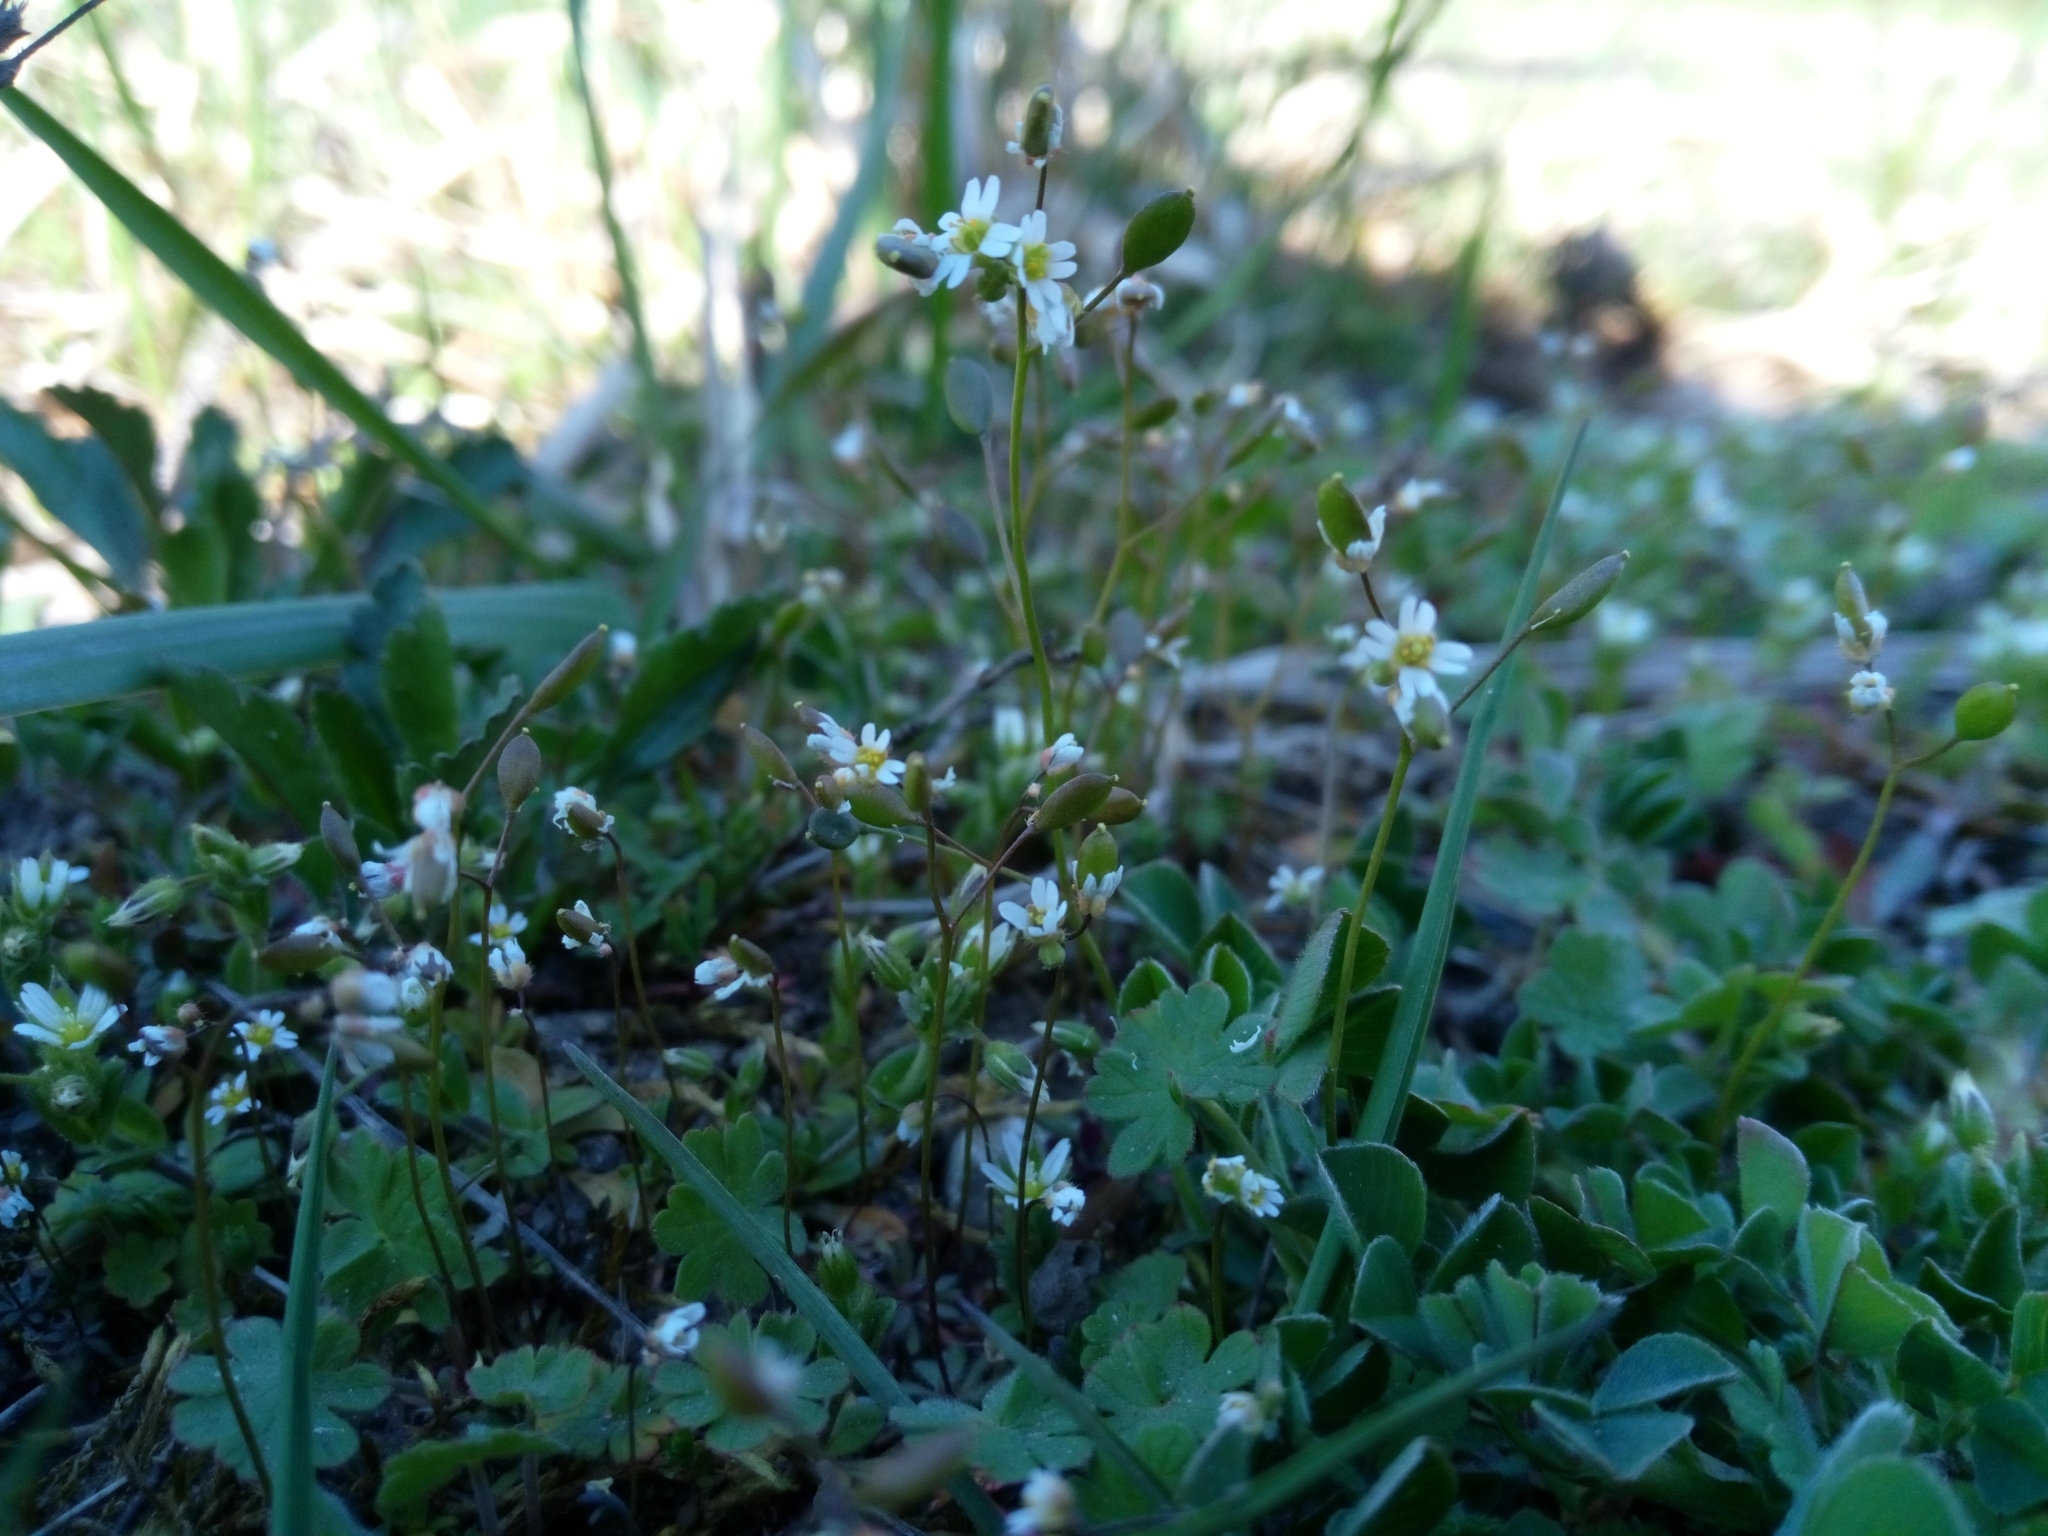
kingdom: Plantae
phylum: Tracheophyta
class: Magnoliopsida
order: Brassicales
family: Brassicaceae
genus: Draba
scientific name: Draba verna
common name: Spring draba
